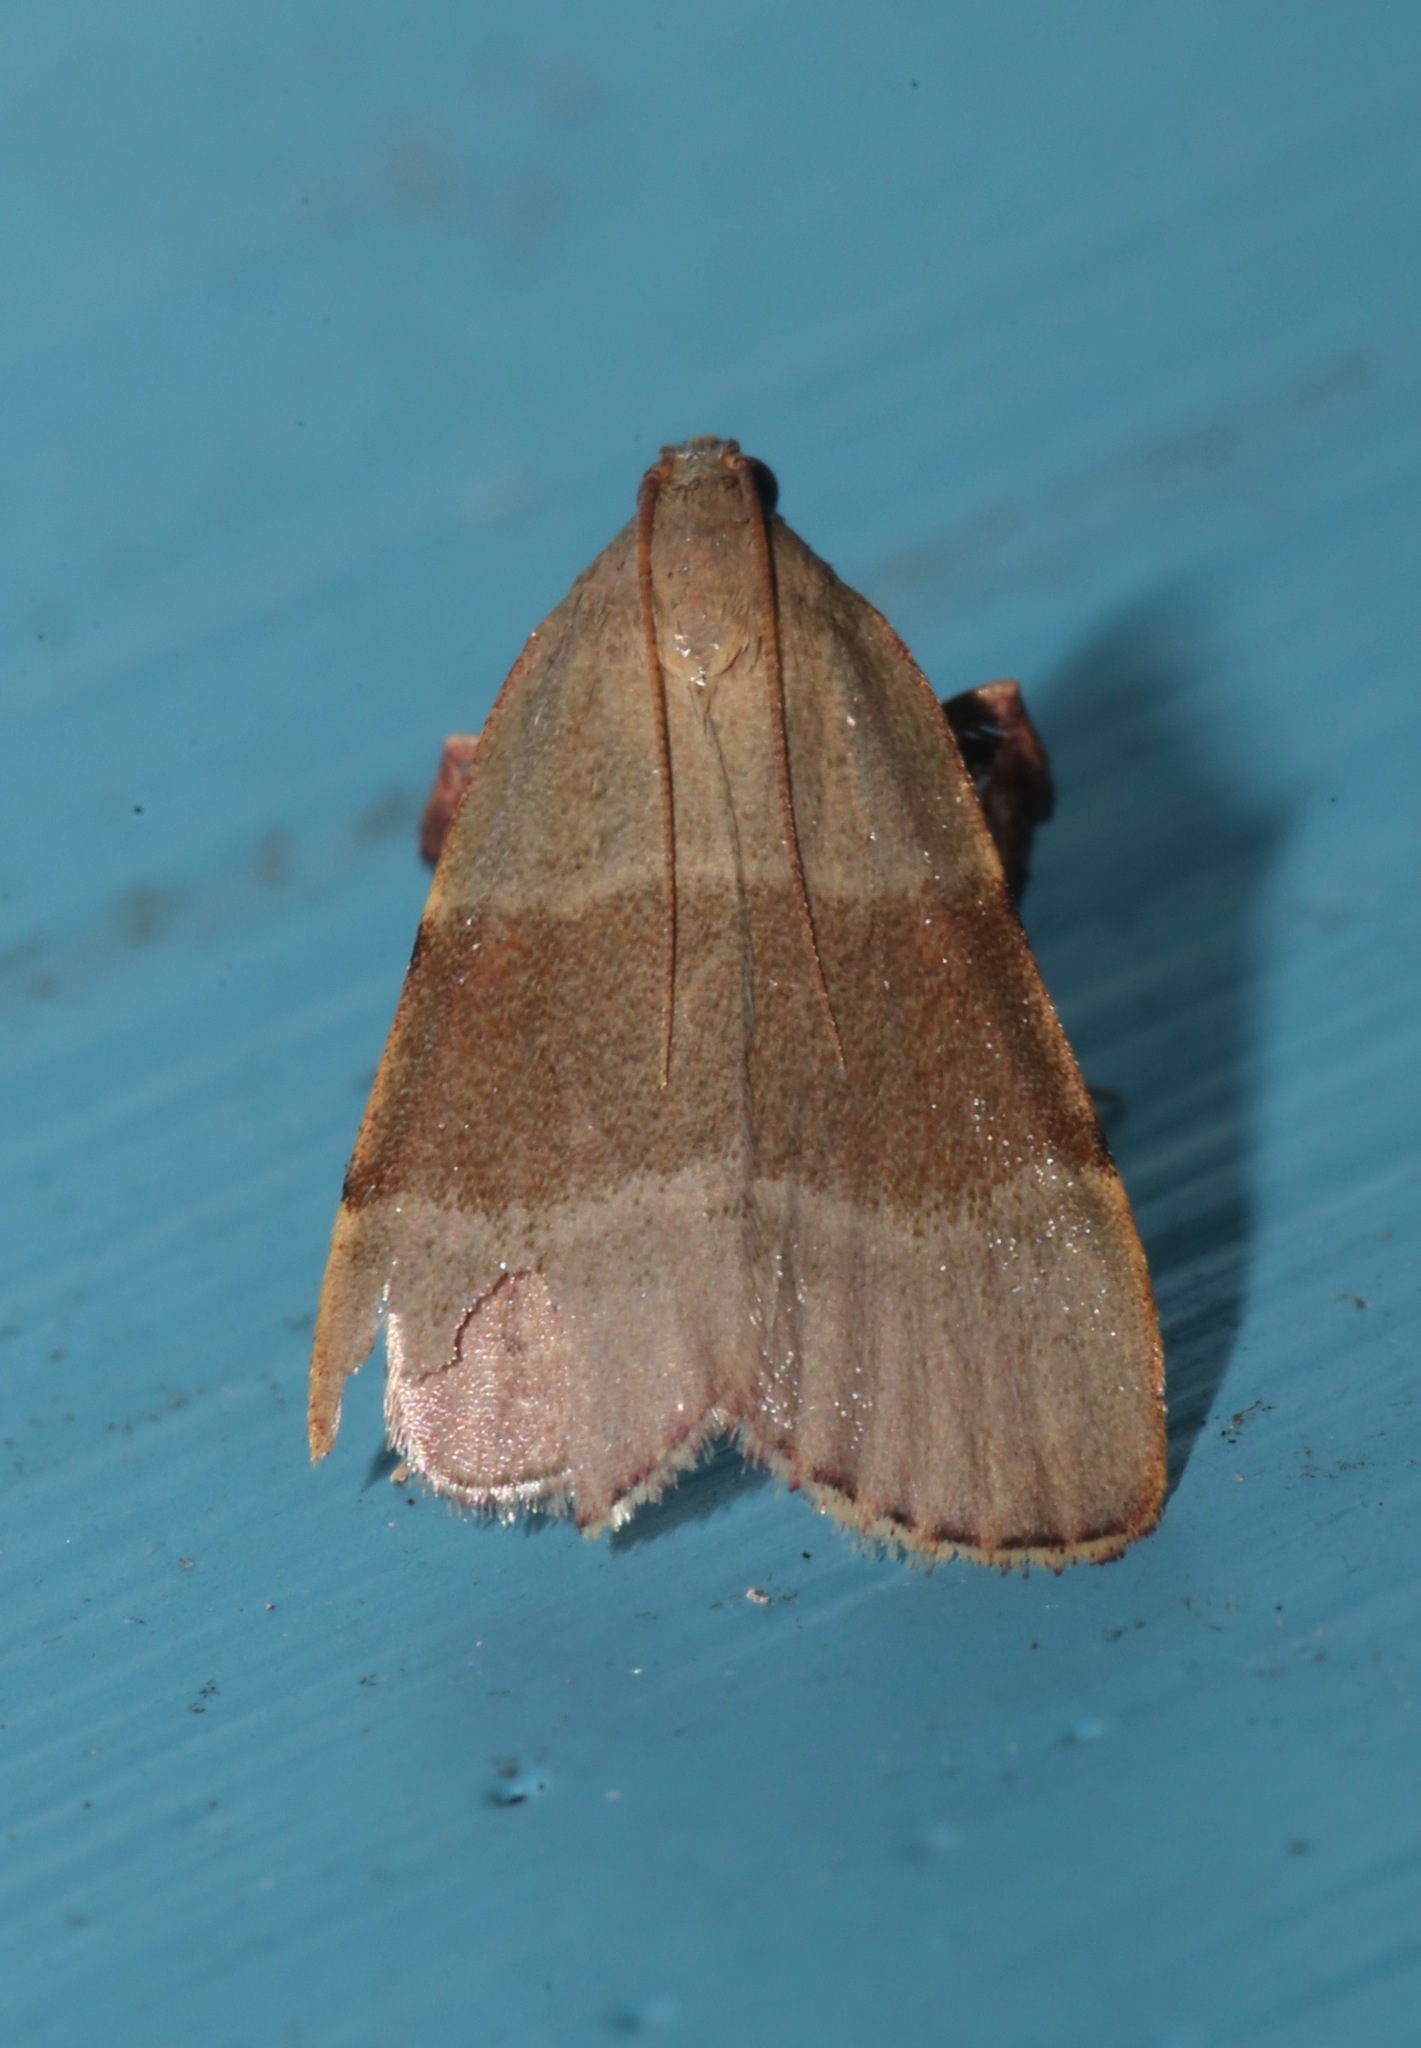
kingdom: Animalia
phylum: Arthropoda
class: Insecta
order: Lepidoptera
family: Pyralidae
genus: Basacallis
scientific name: Basacallis tarachodes
